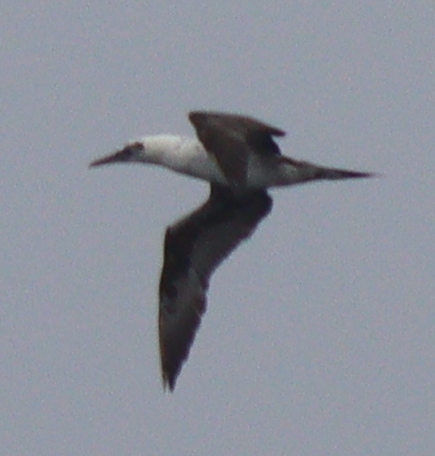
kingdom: Animalia
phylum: Chordata
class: Aves
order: Suliformes
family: Sulidae
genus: Morus
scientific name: Morus bassanus
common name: Northern gannet
